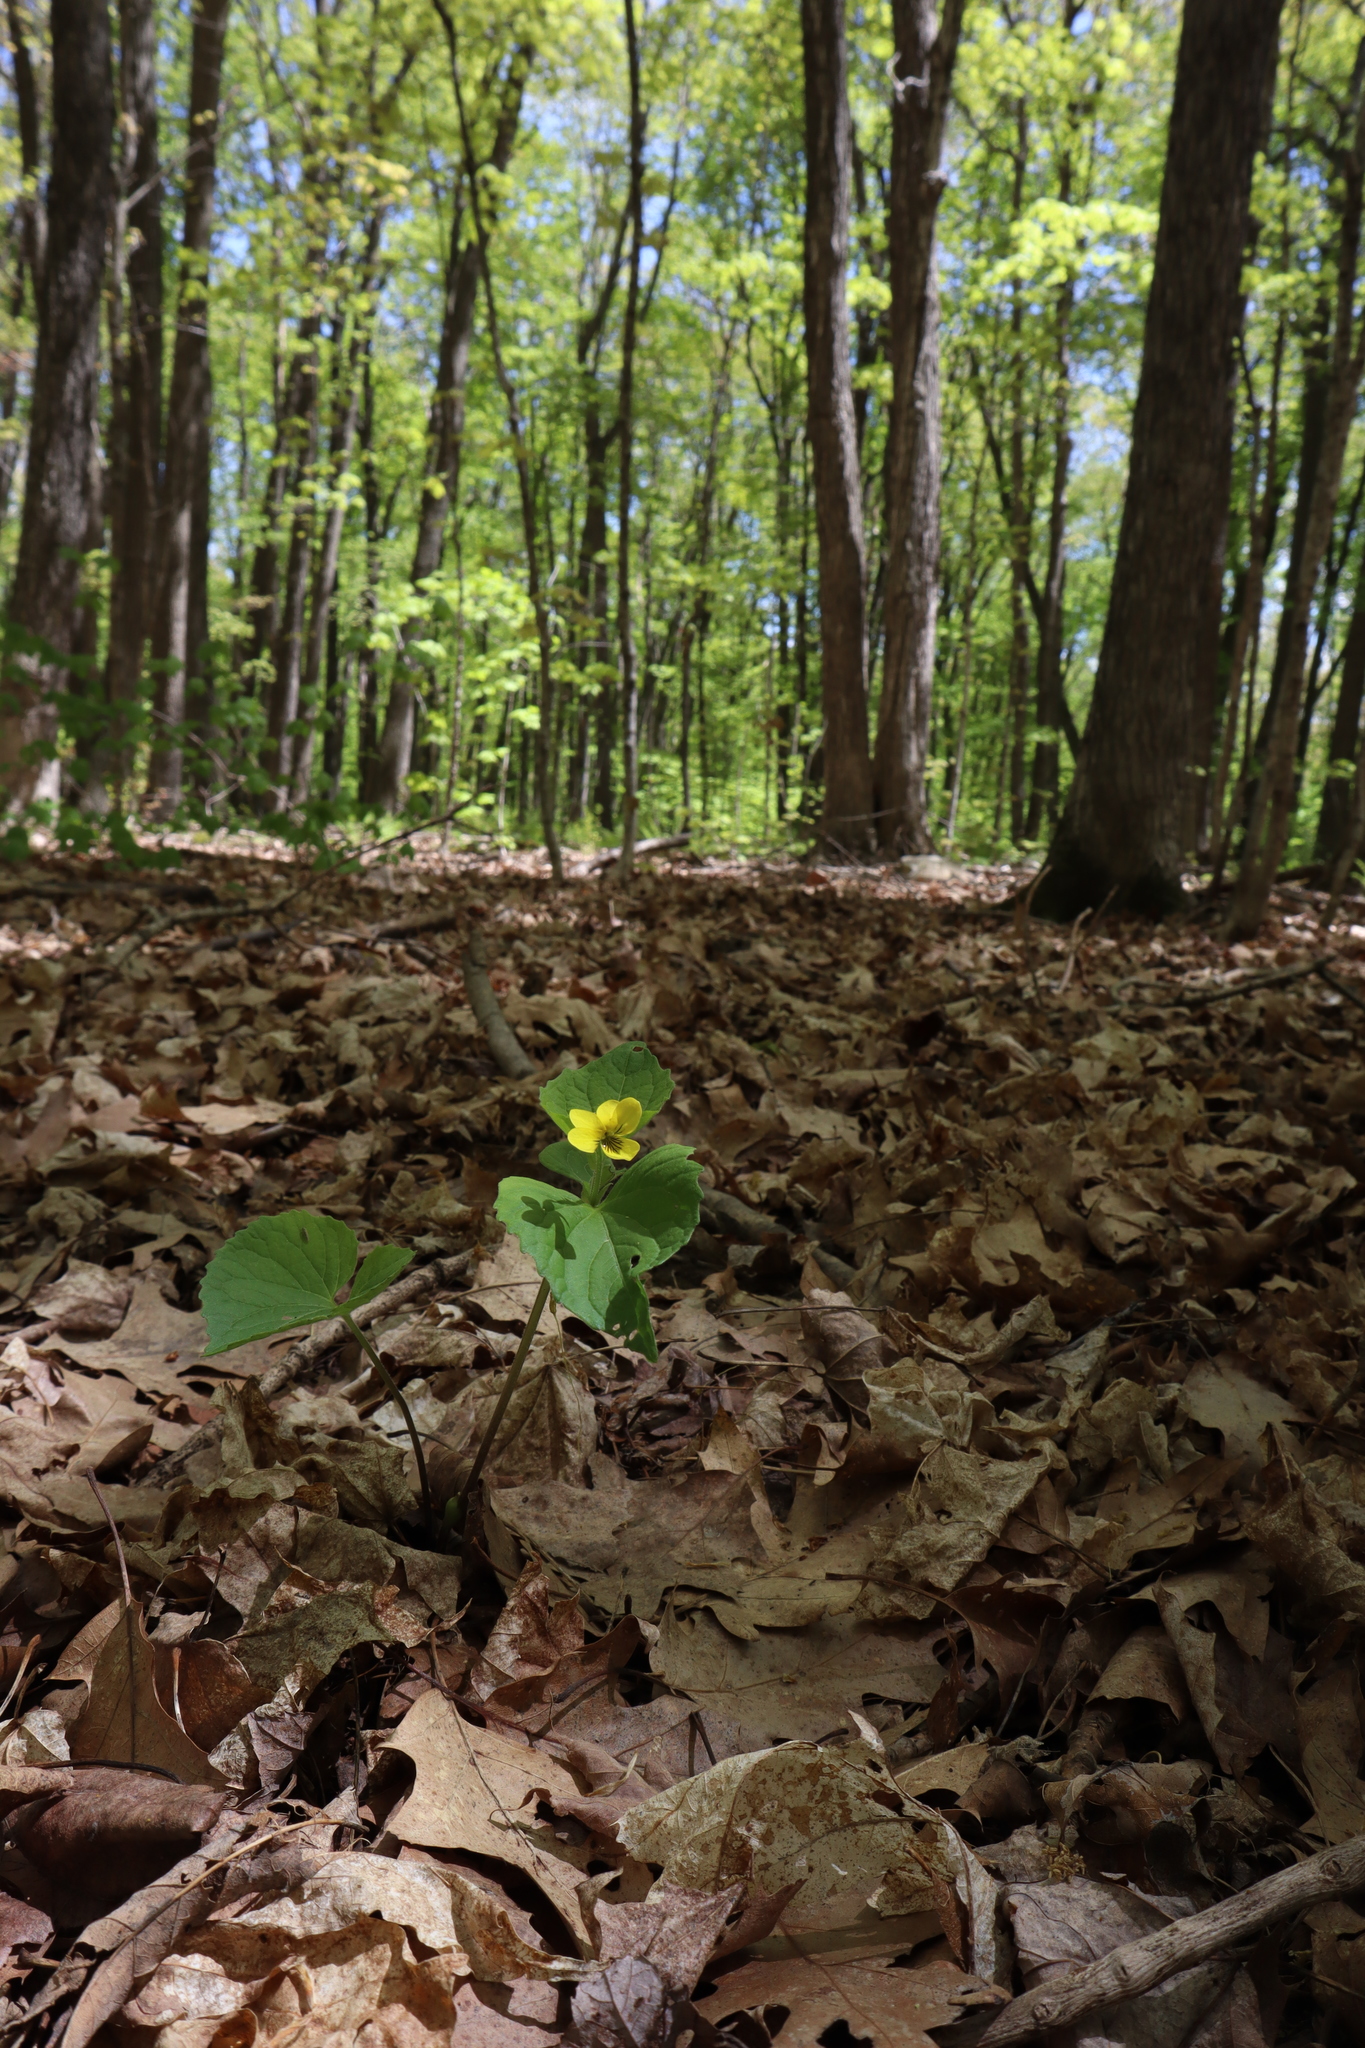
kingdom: Plantae
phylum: Tracheophyta
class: Magnoliopsida
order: Malpighiales
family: Violaceae
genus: Viola
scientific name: Viola eriocarpa
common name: Smooth yellow violet
